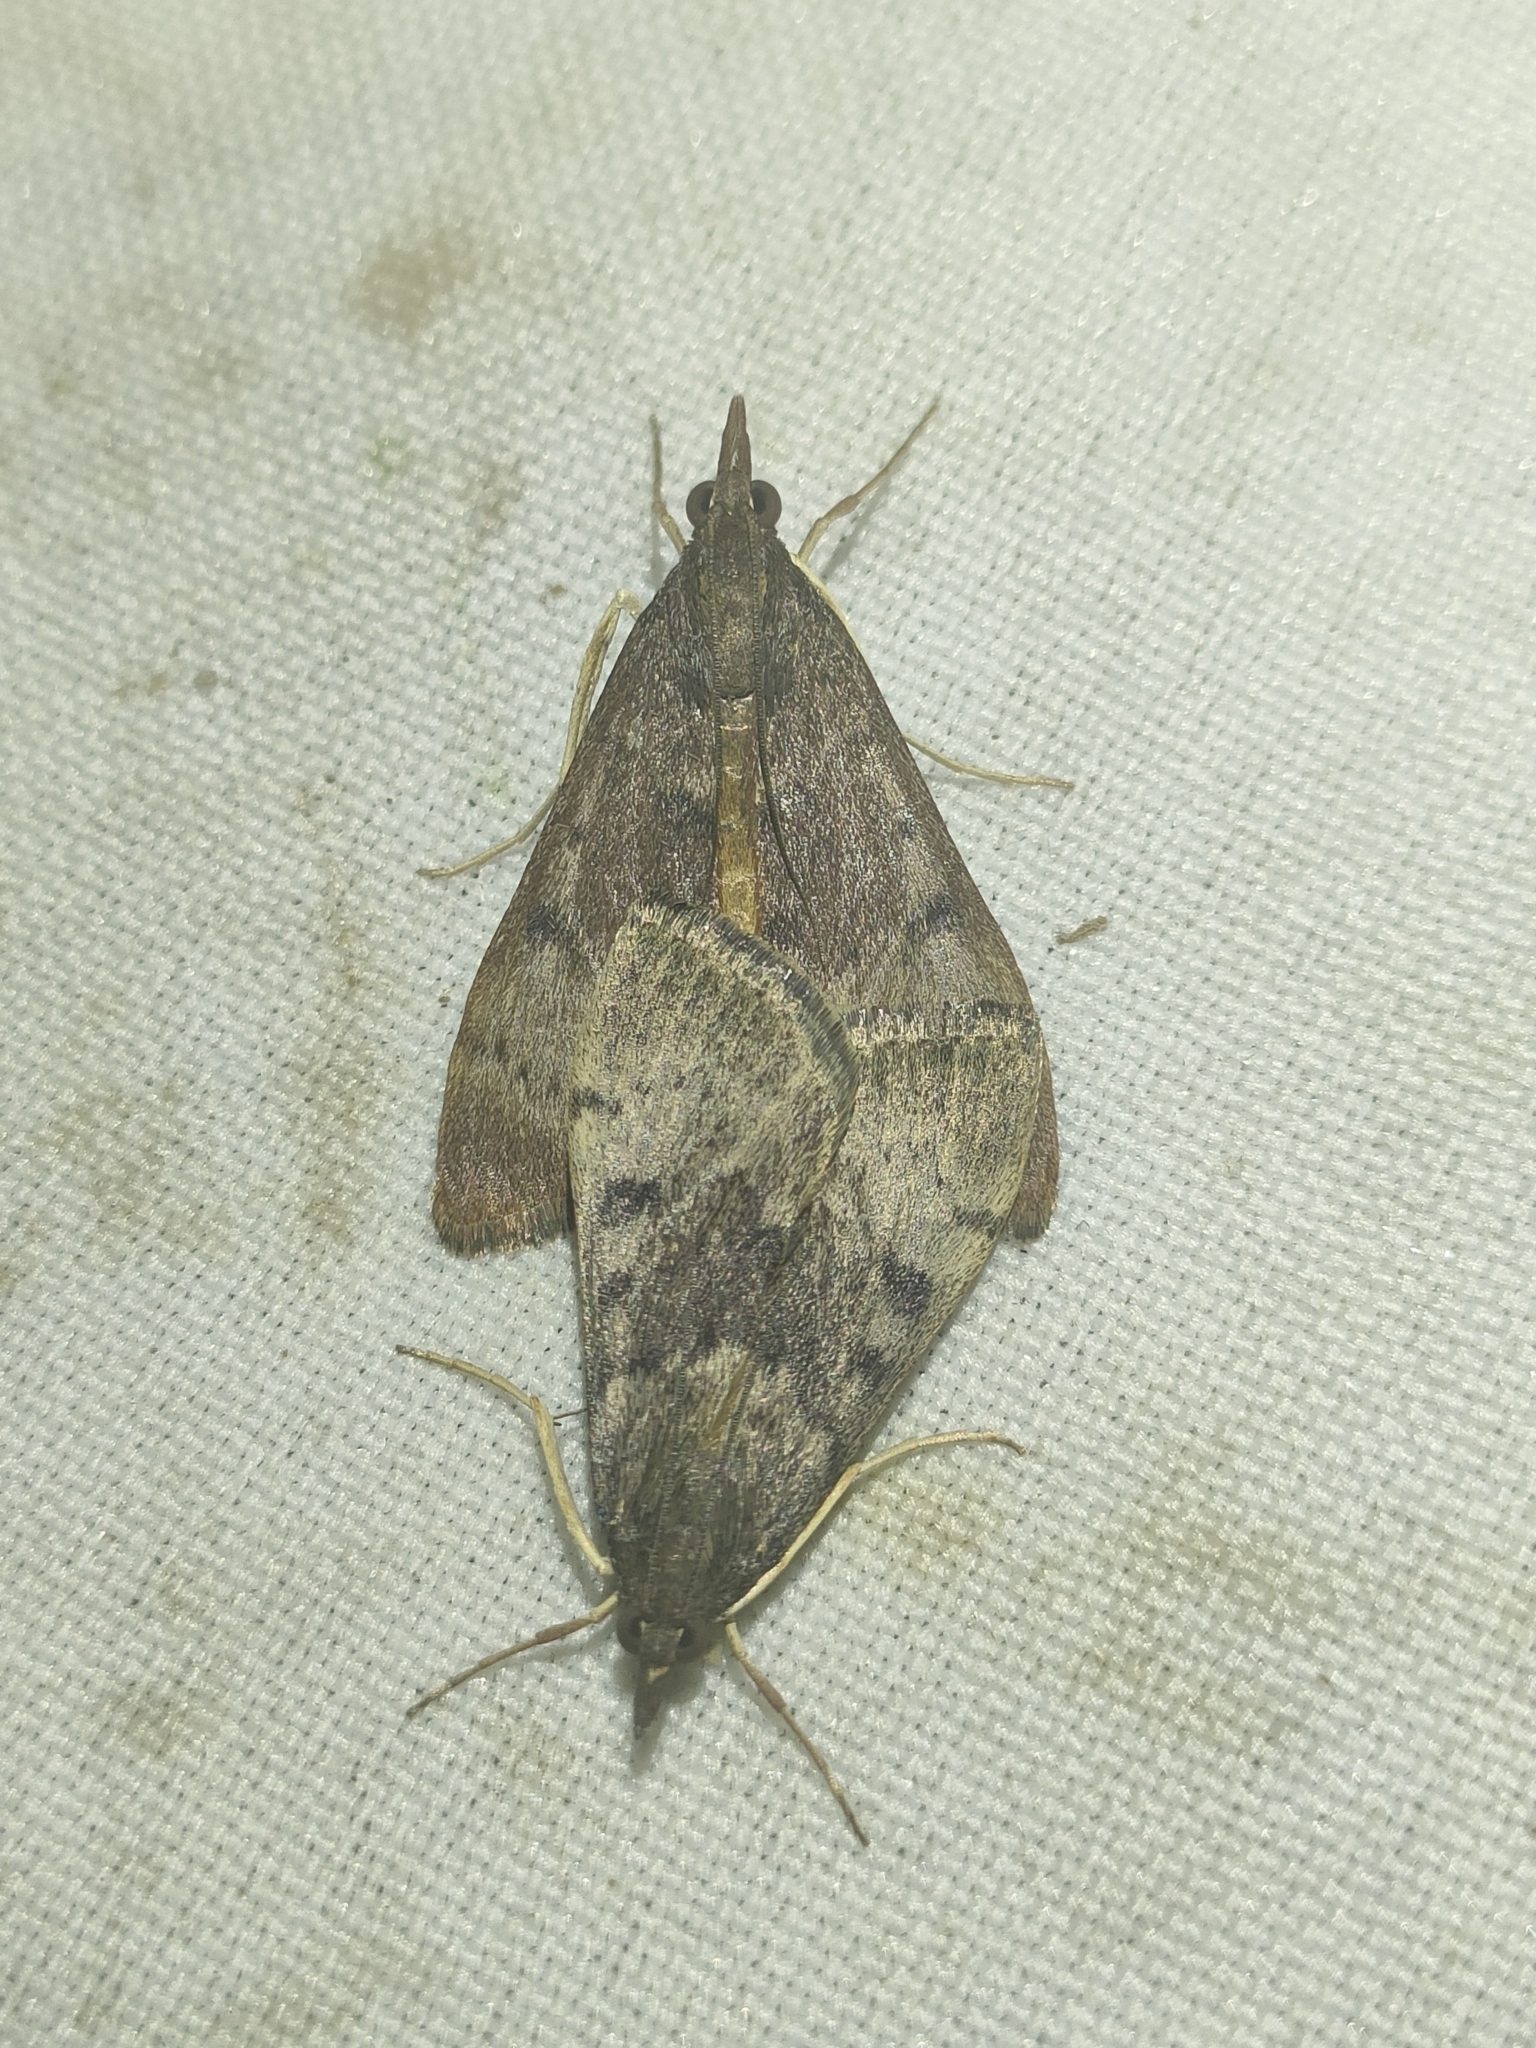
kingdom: Animalia
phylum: Arthropoda
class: Insecta
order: Lepidoptera
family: Crambidae
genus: Uresiphita
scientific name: Uresiphita gilvata
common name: Yellow-underwing pearl
